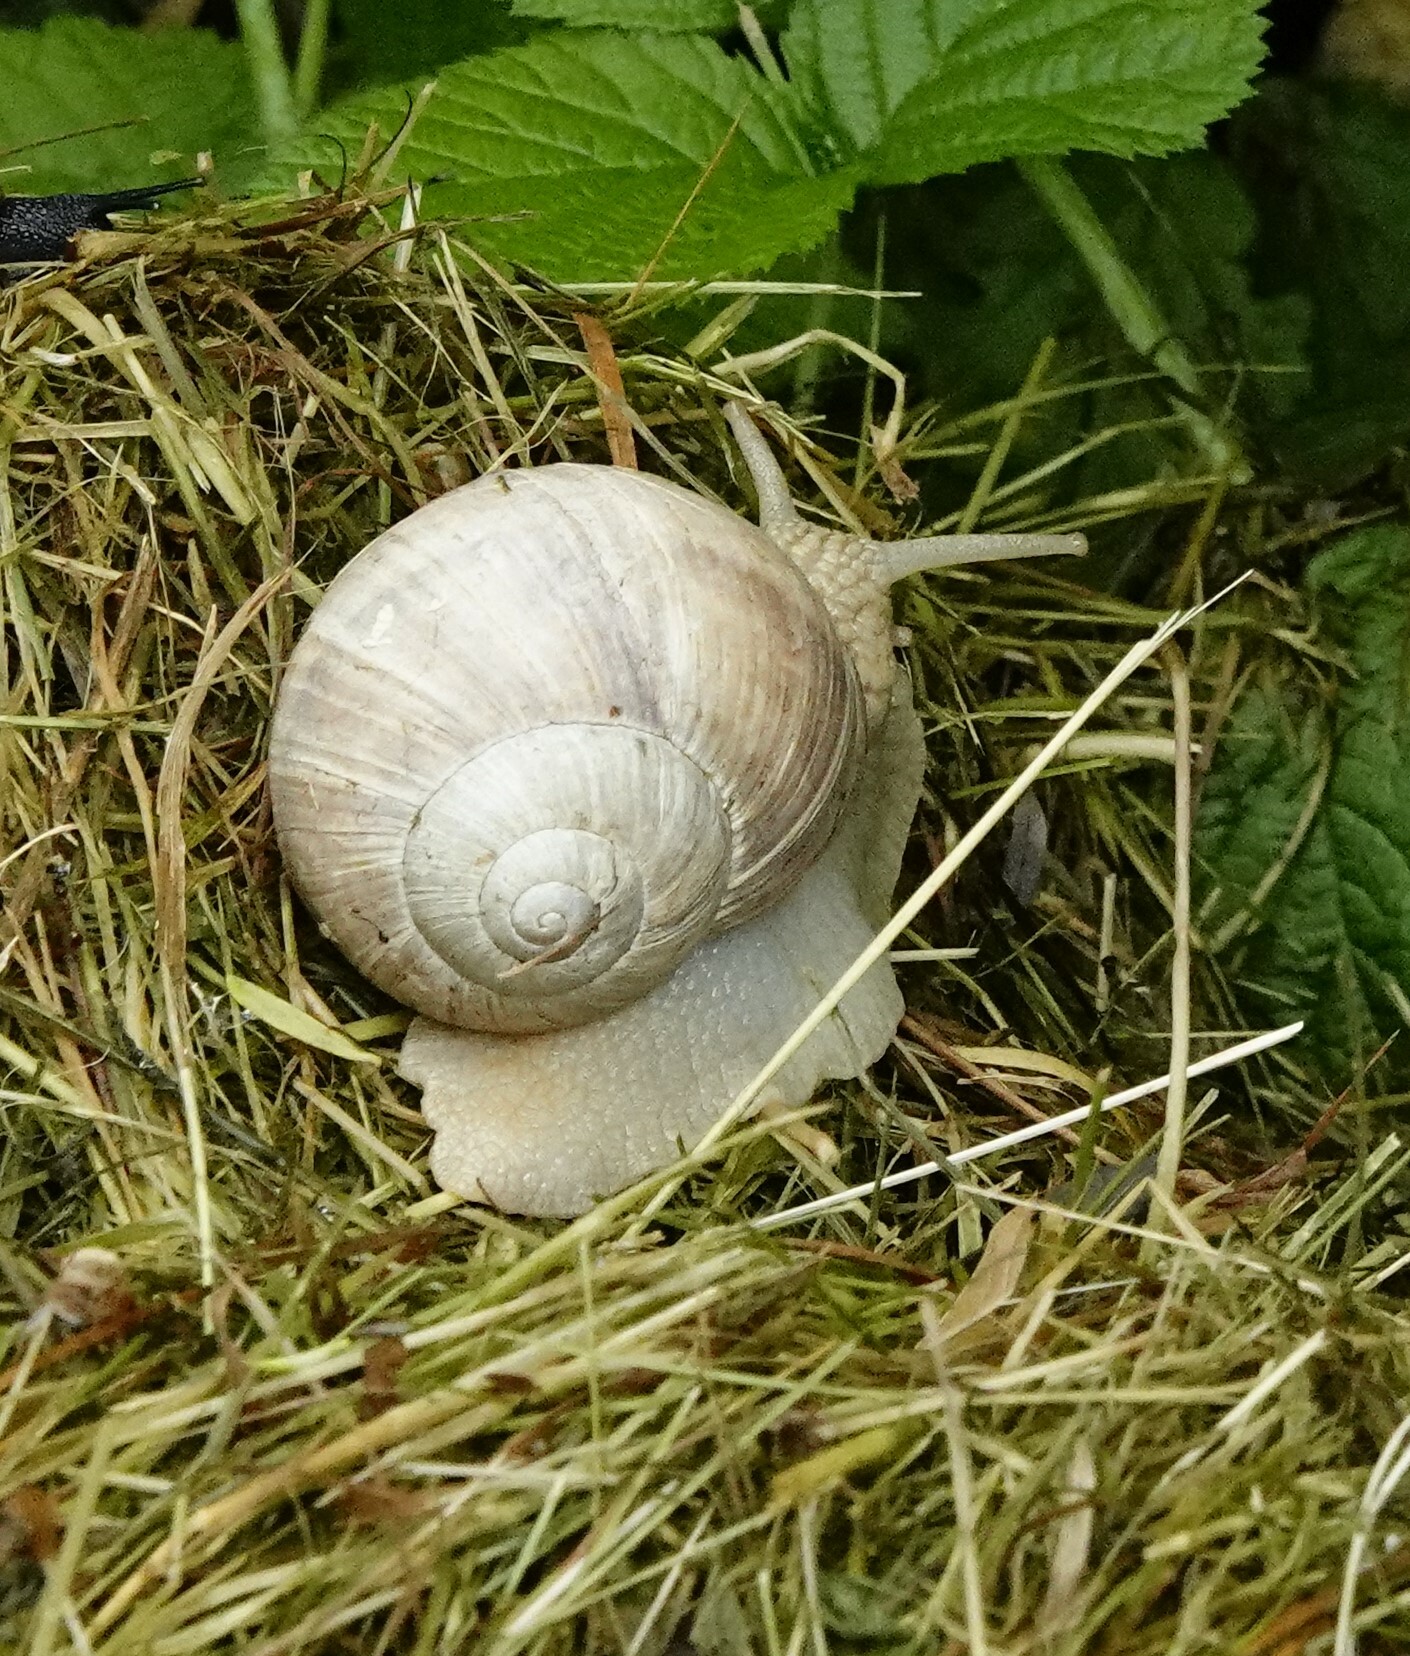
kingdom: Animalia
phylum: Mollusca
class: Gastropoda
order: Stylommatophora
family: Helicidae
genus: Helix
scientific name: Helix pomatia
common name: Roman snail
